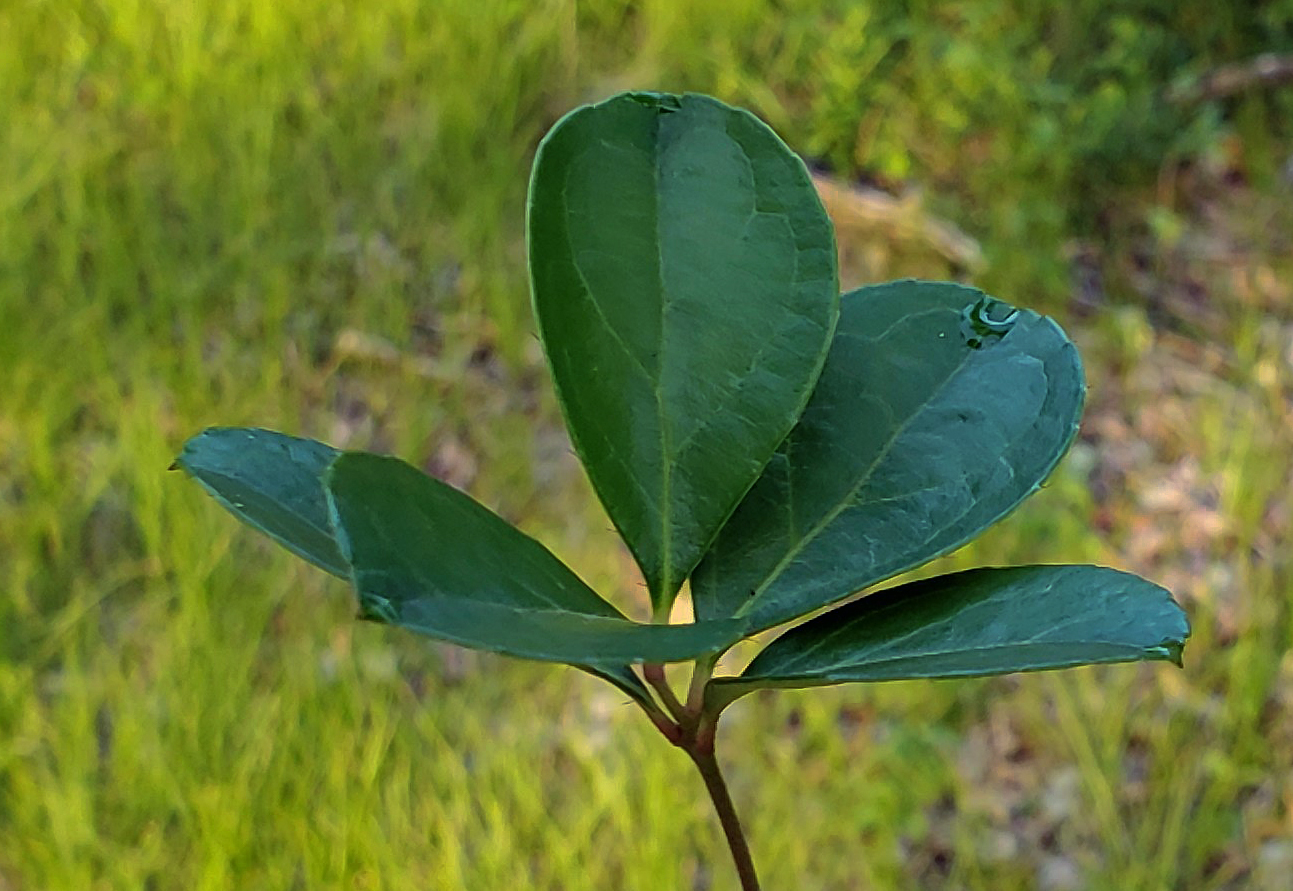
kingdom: Plantae
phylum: Tracheophyta
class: Magnoliopsida
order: Ericales
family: Ericaceae
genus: Gaultheria
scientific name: Gaultheria procumbens
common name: Checkerberry
